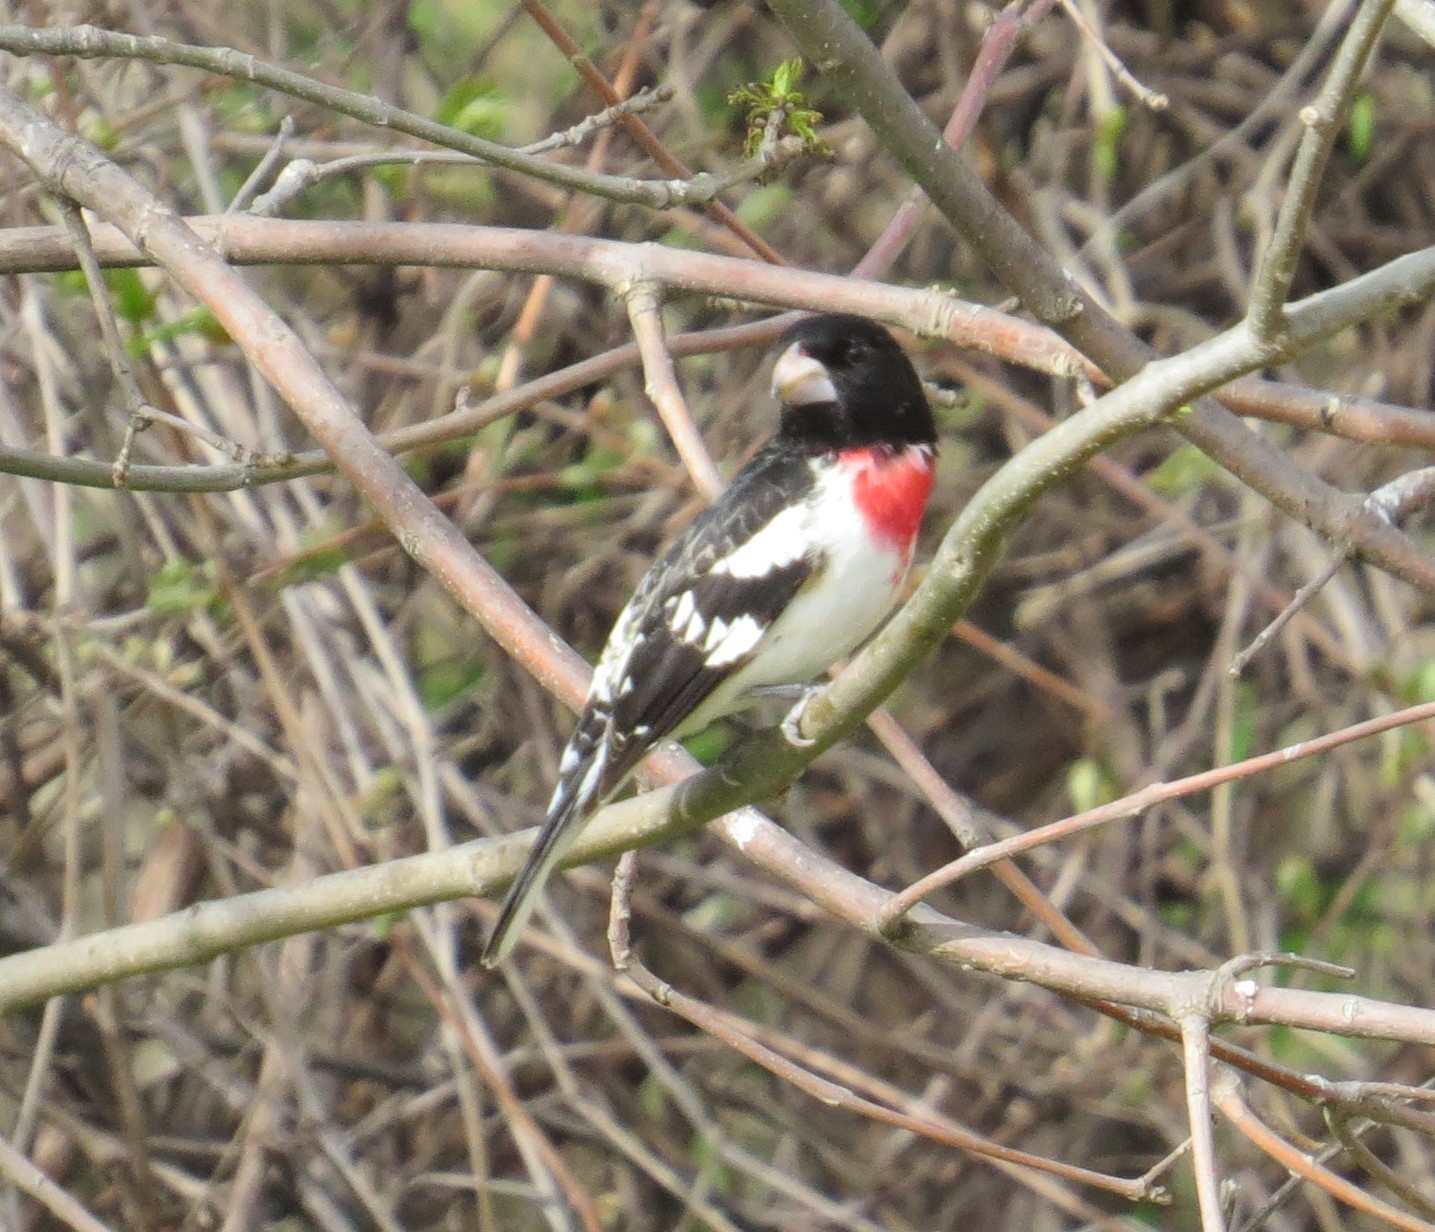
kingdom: Animalia
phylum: Chordata
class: Aves
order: Passeriformes
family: Cardinalidae
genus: Pheucticus
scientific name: Pheucticus ludovicianus
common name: Rose-breasted grosbeak
